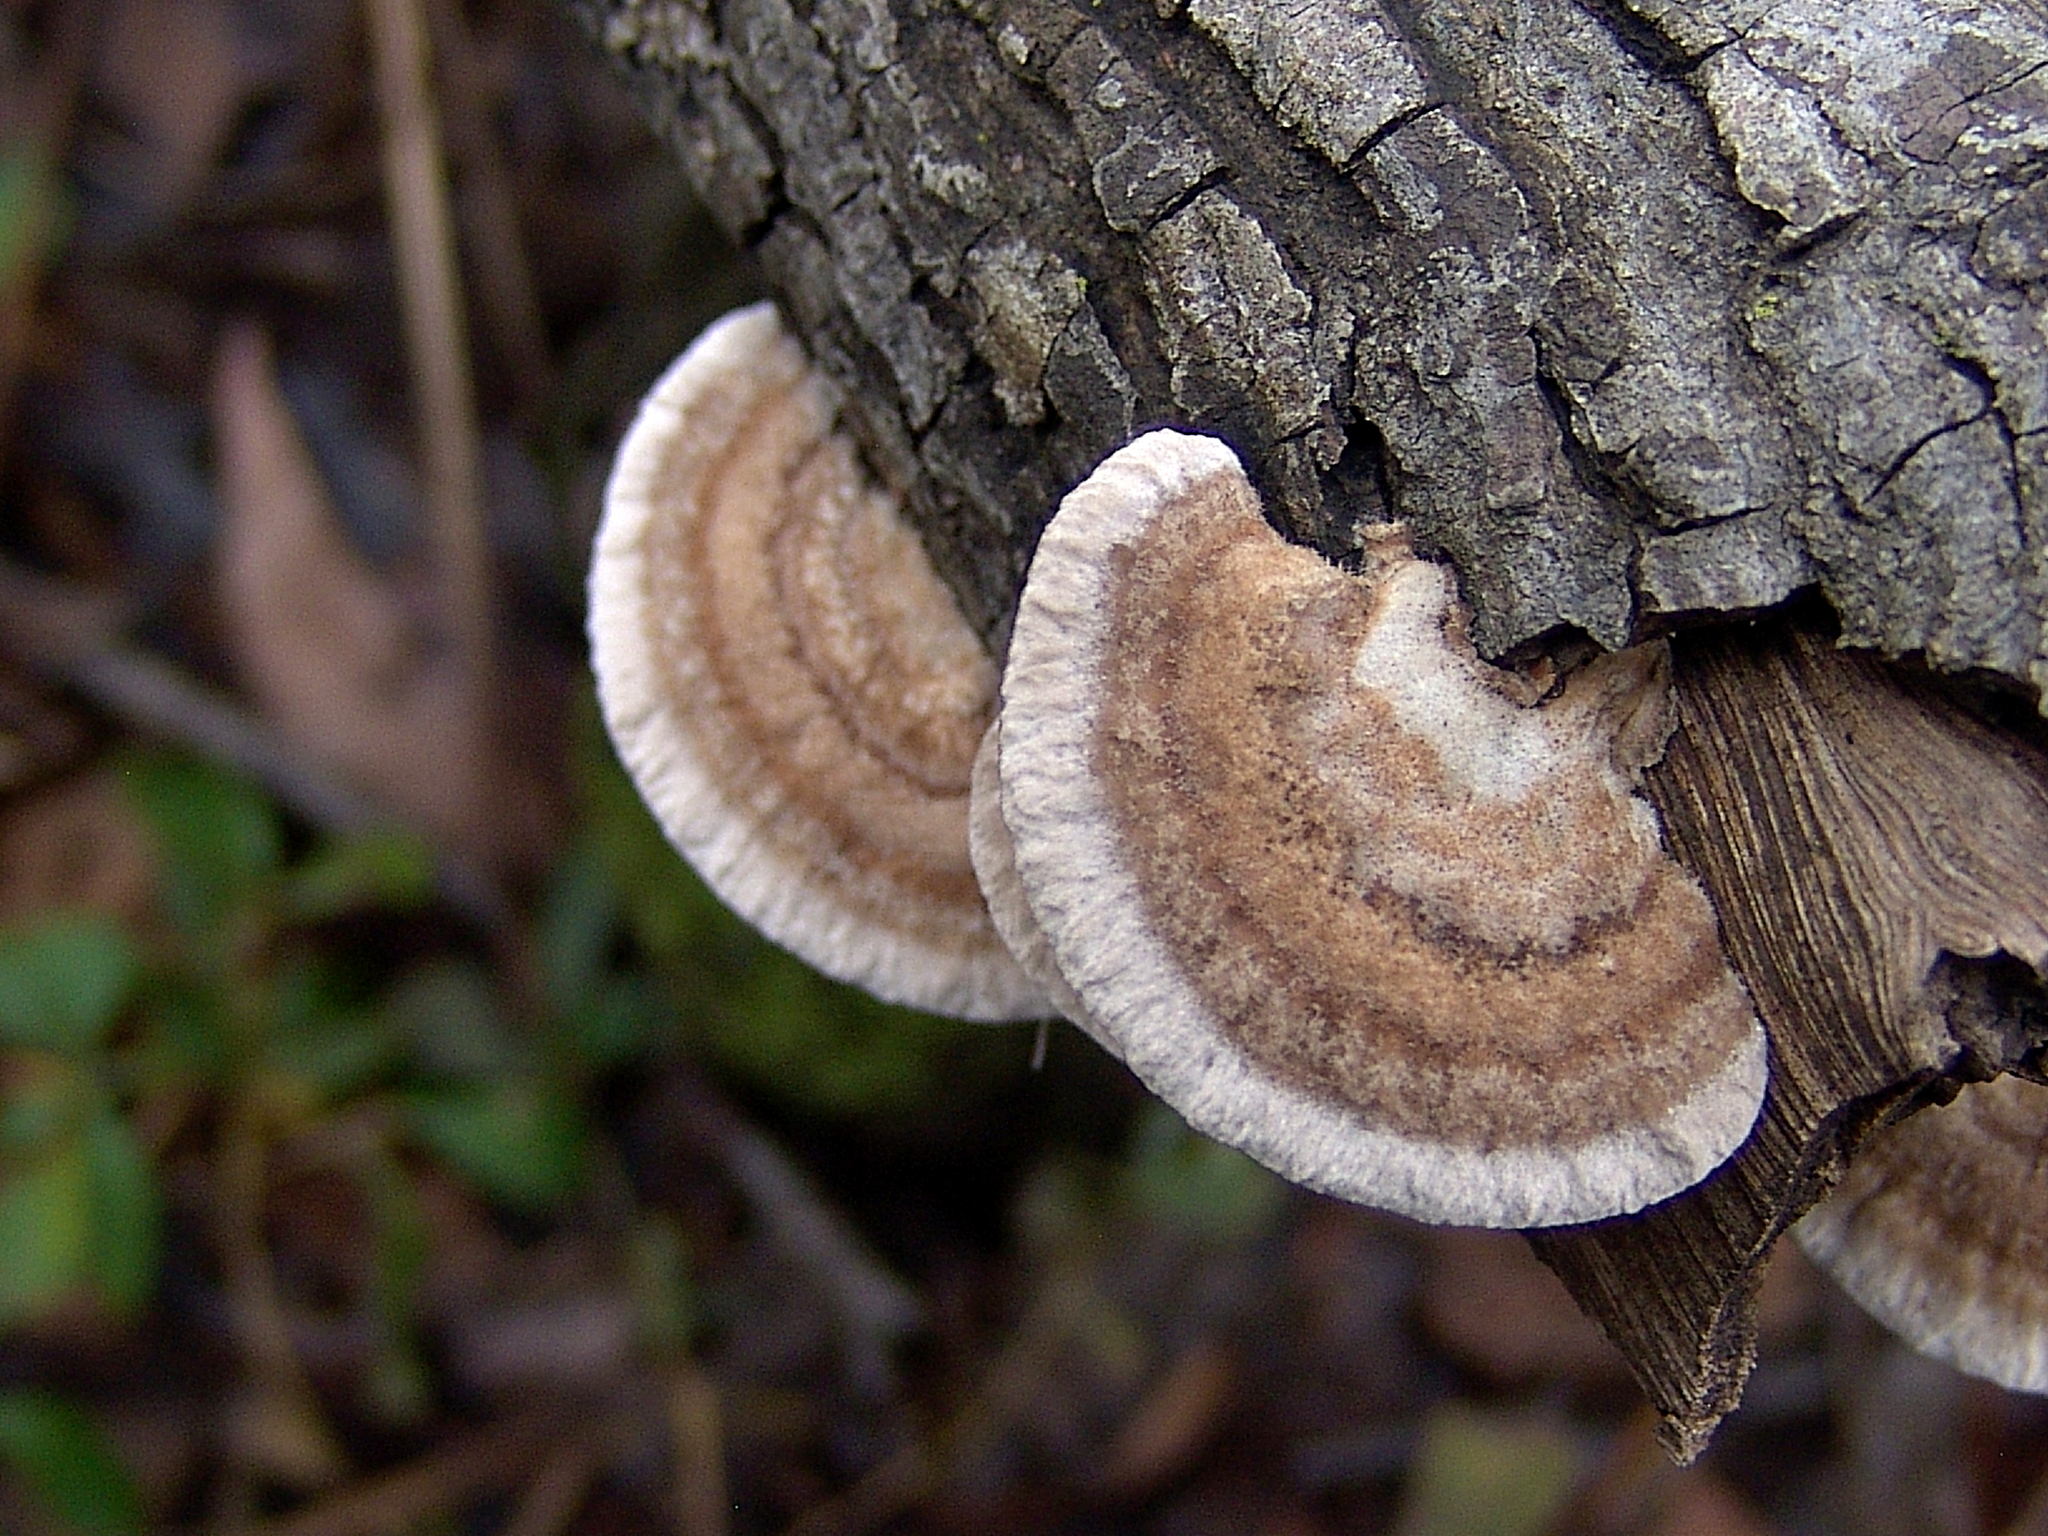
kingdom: Fungi
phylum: Basidiomycota
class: Agaricomycetes
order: Polyporales
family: Polyporaceae
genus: Trametes
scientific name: Trametes hirsuta
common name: Hairy bracket
